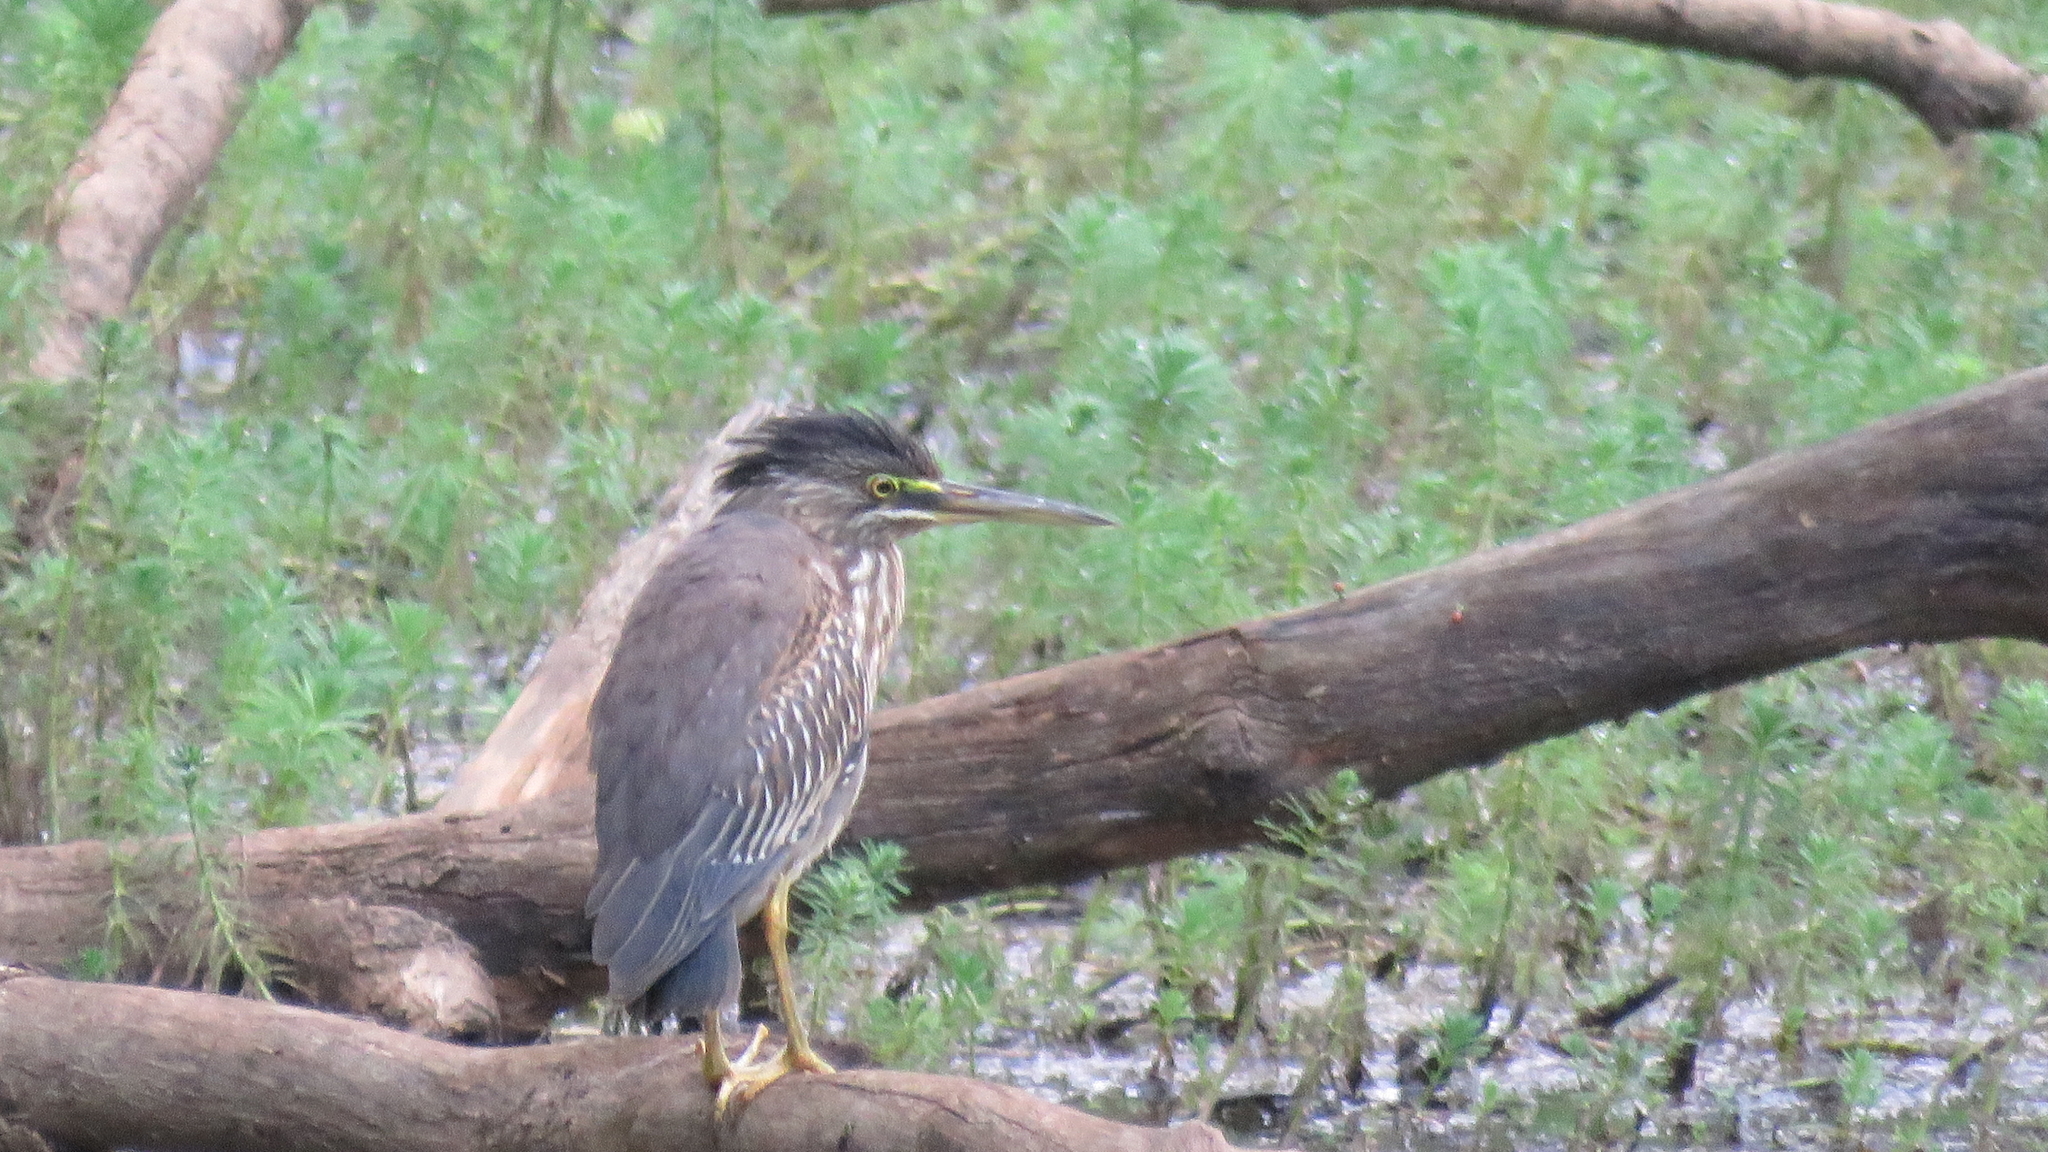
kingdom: Animalia
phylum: Chordata
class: Aves
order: Pelecaniformes
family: Ardeidae
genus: Butorides
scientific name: Butorides striata
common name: Striated heron
